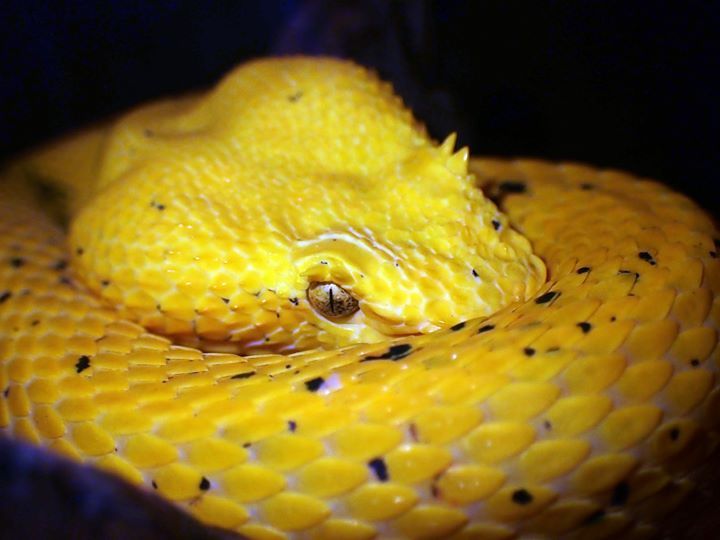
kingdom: Animalia
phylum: Chordata
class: Squamata
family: Viperidae
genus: Bothriechis
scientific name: Bothriechis schlegelii
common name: Eyelash viper
